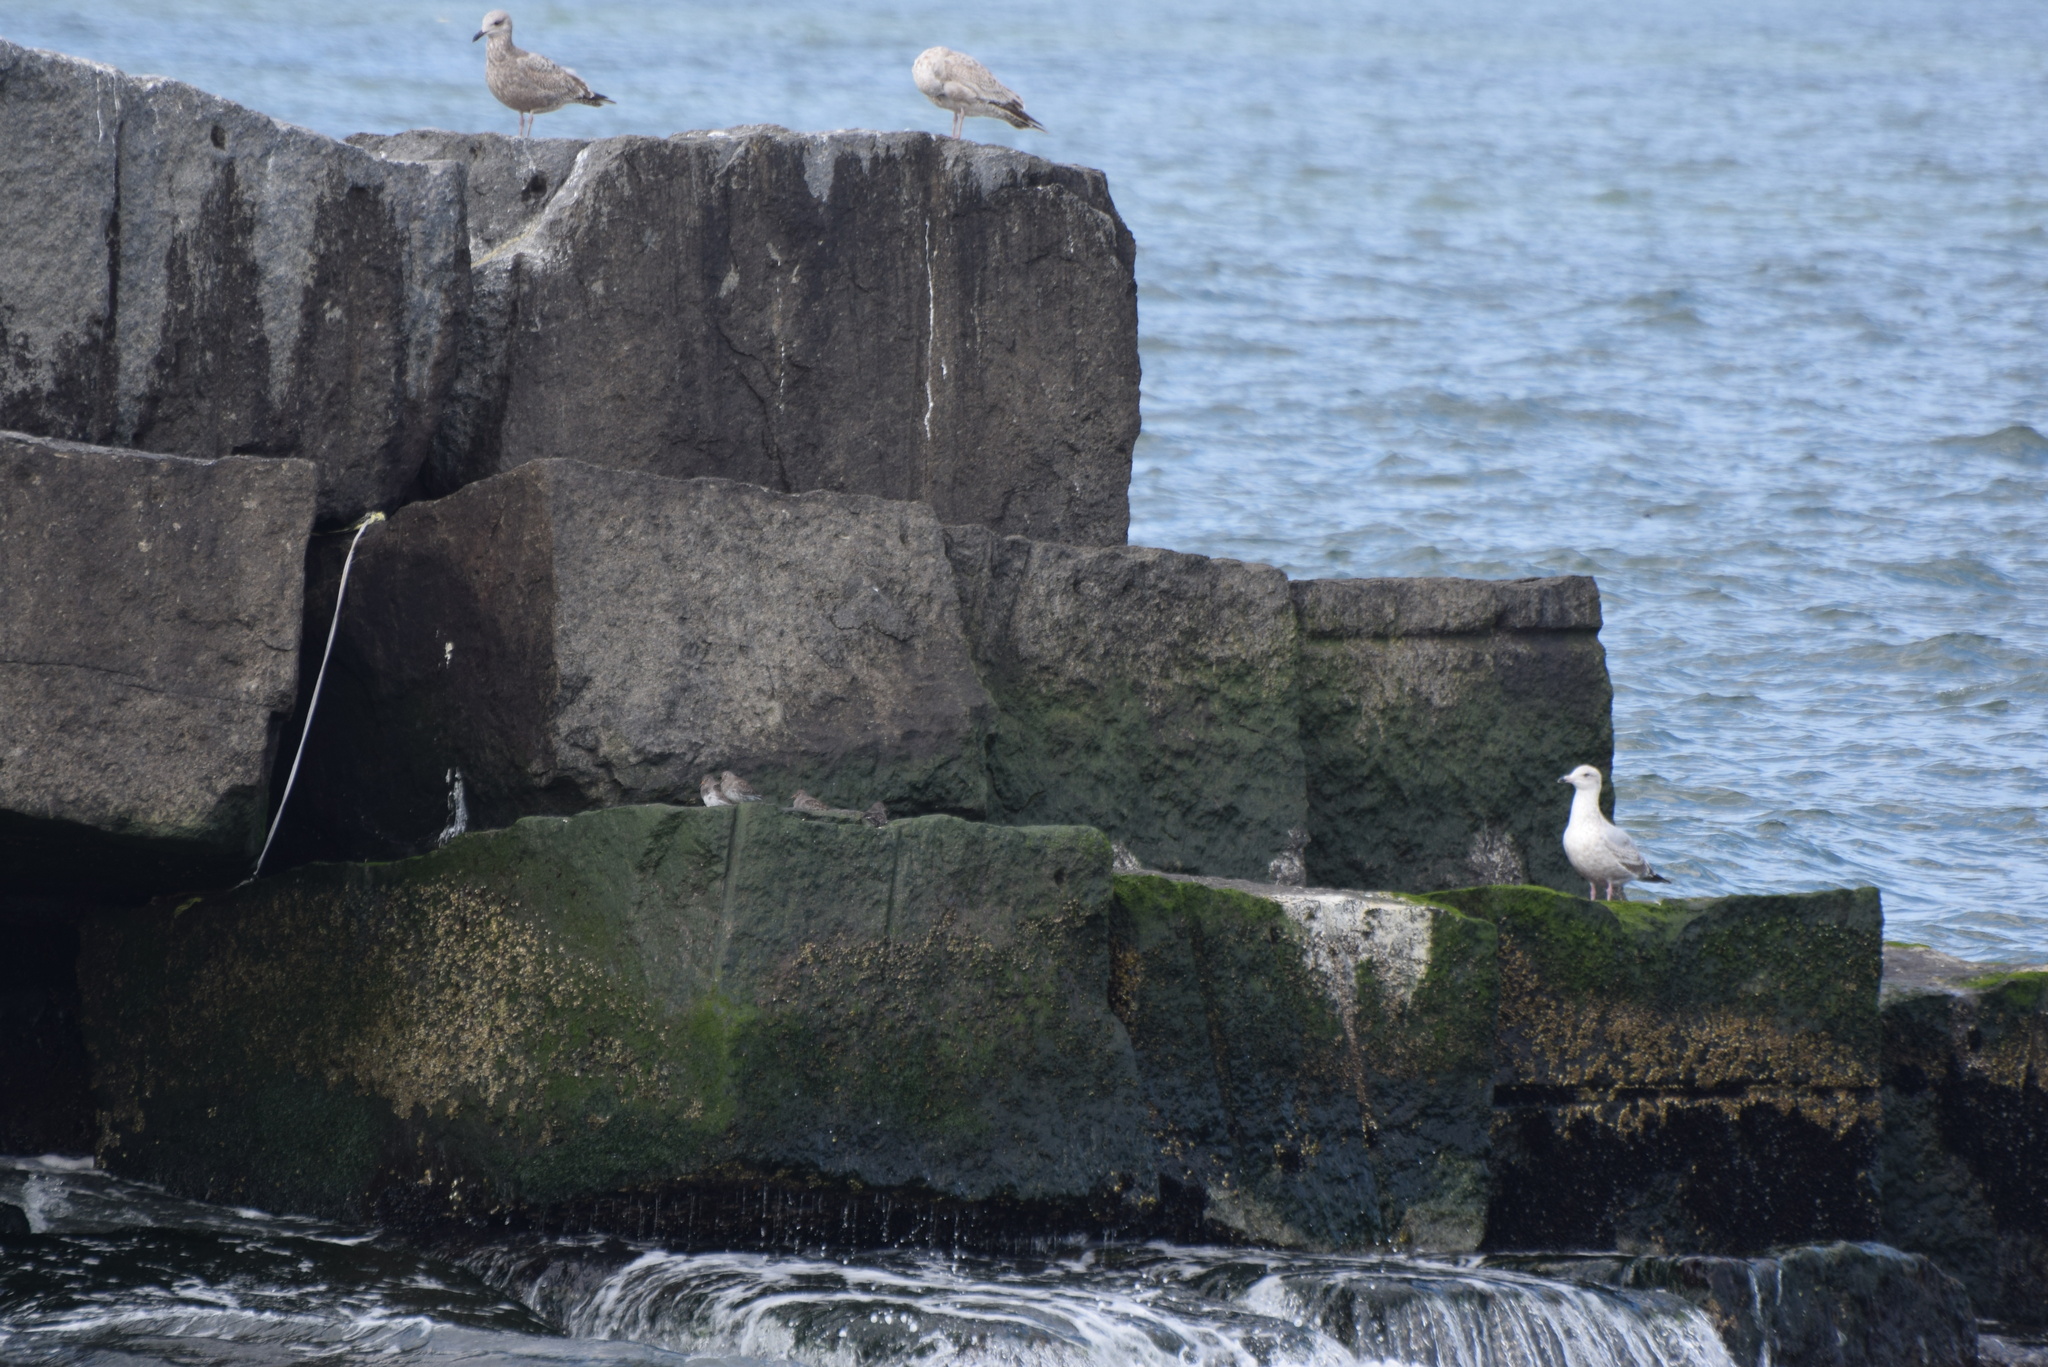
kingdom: Animalia
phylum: Chordata
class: Aves
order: Charadriiformes
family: Scolopacidae
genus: Calidris
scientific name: Calidris maritima
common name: Purple sandpiper
